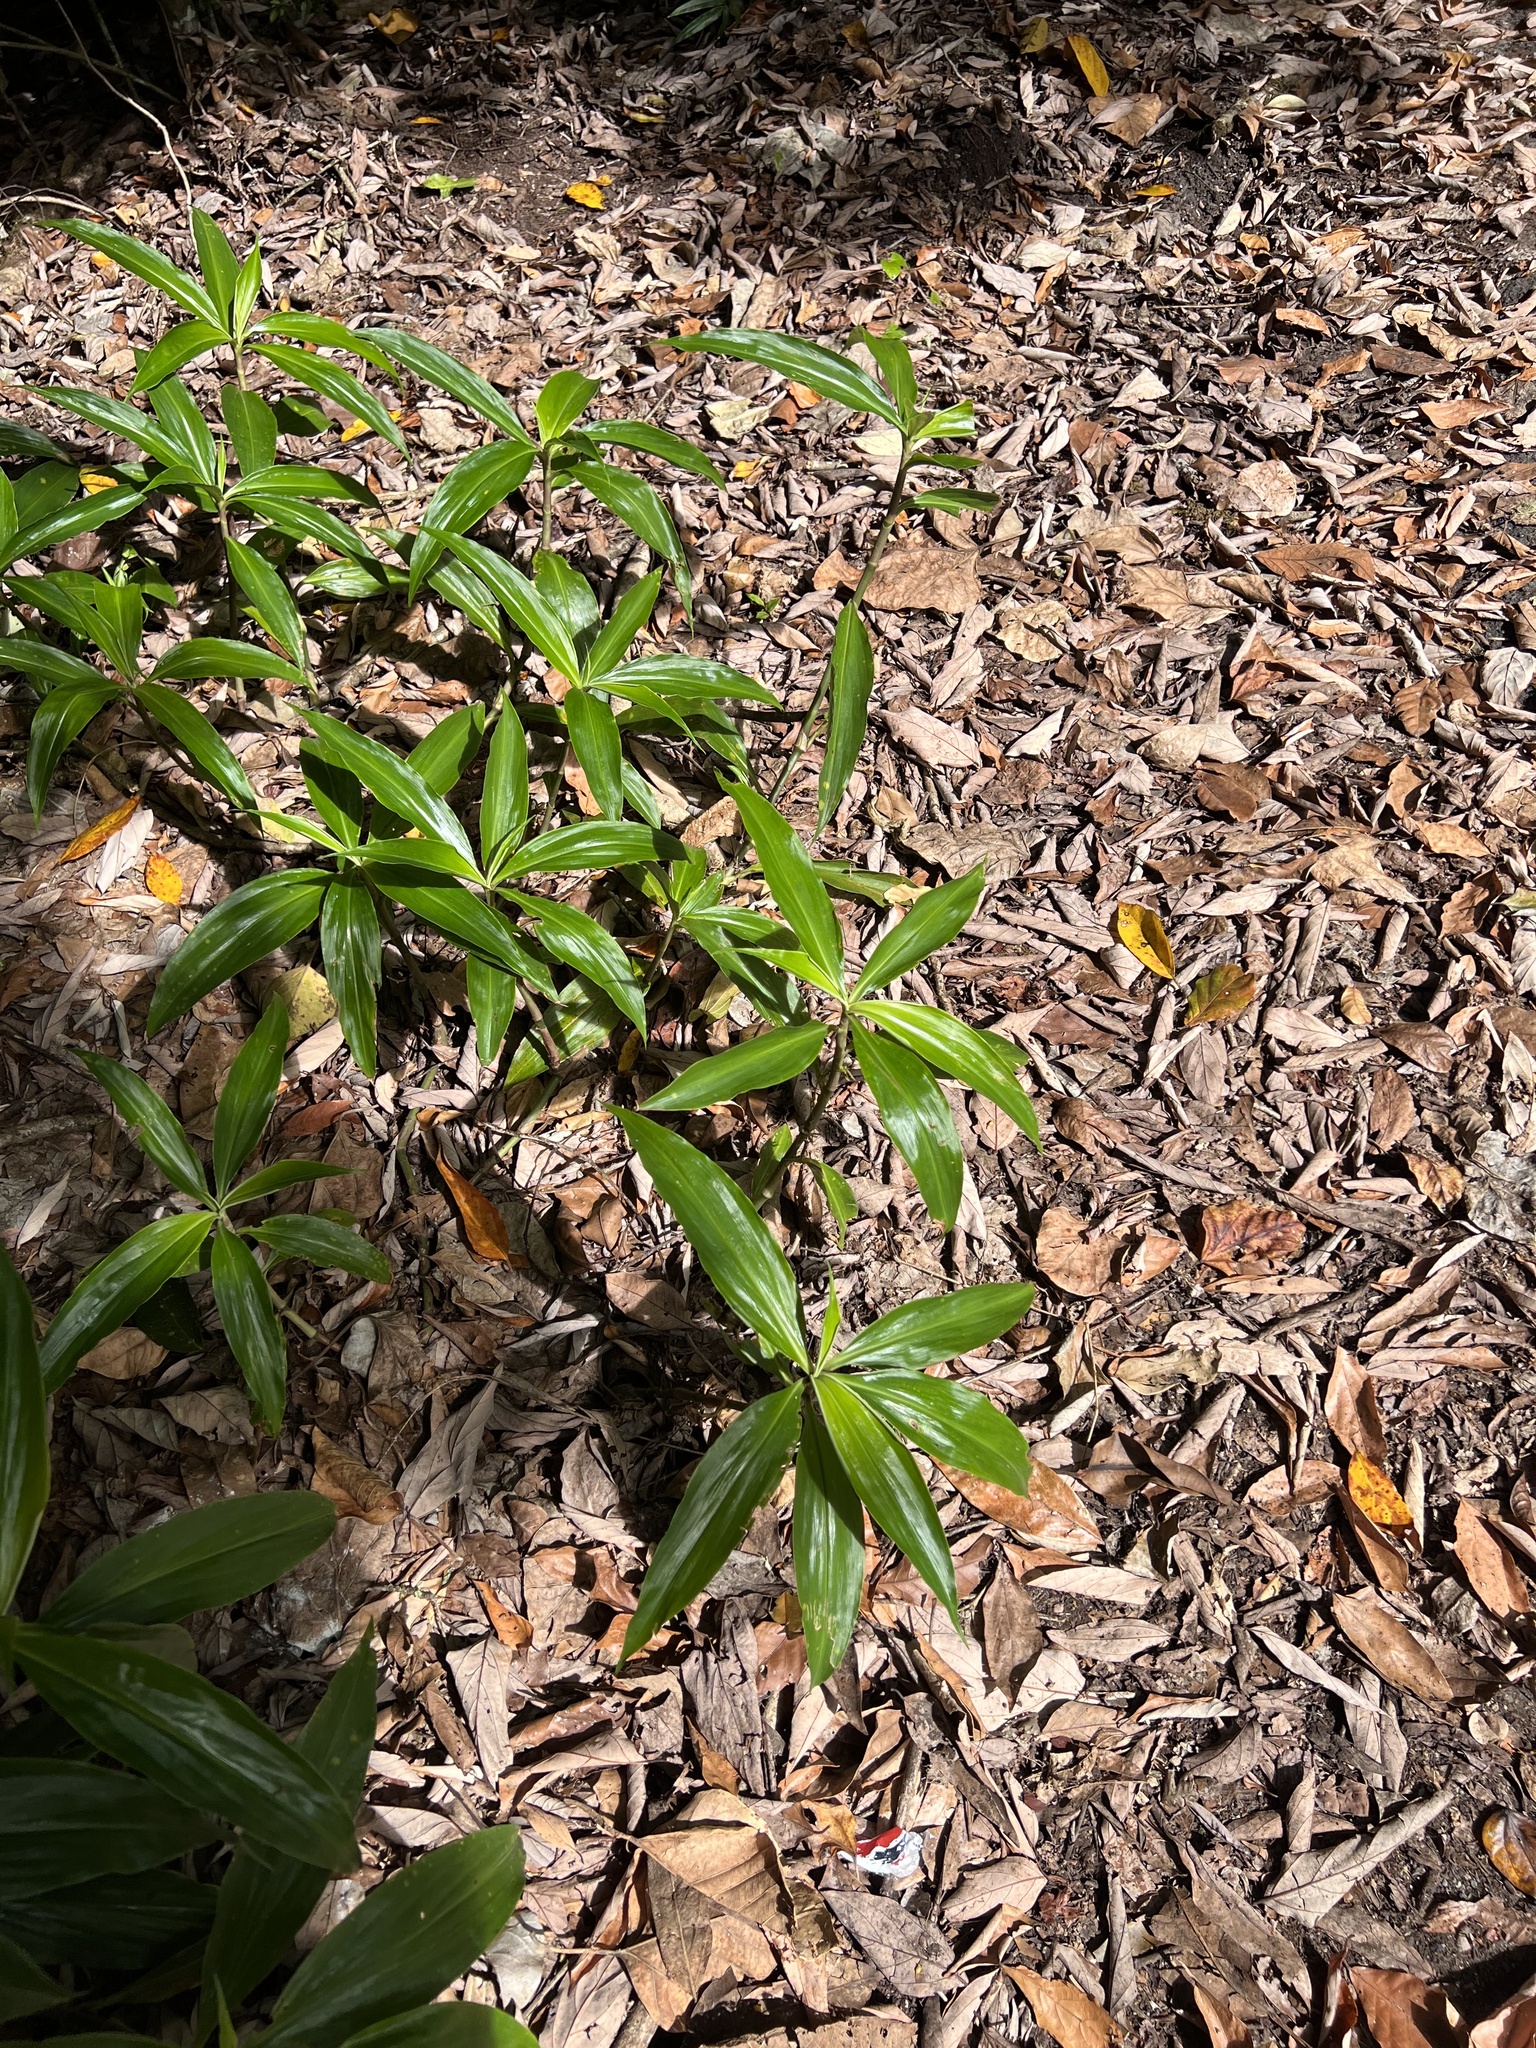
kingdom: Plantae
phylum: Tracheophyta
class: Liliopsida
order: Commelinales
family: Commelinaceae
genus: Pollia
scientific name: Pollia macrophylla
